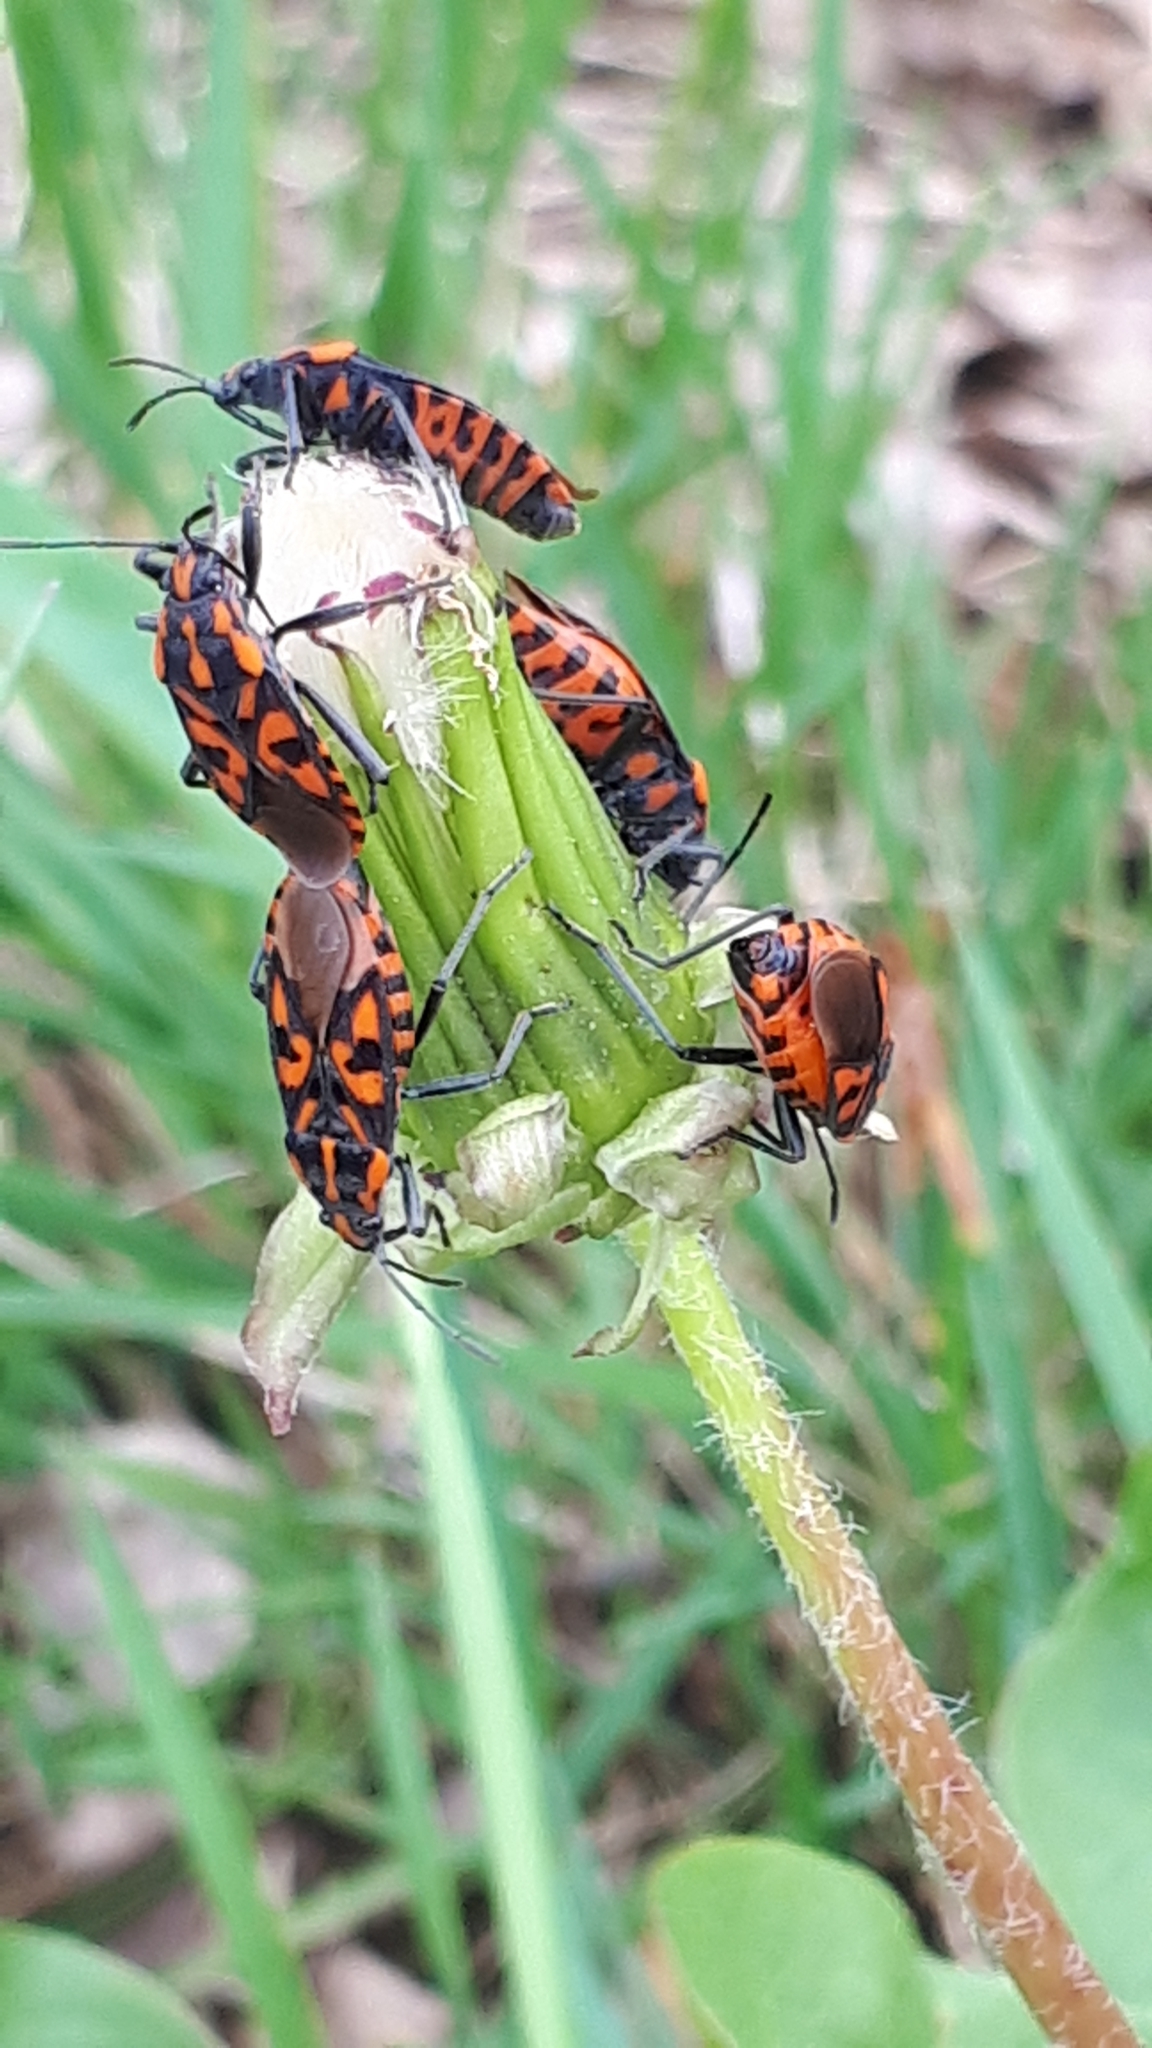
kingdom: Animalia
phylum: Arthropoda
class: Insecta
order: Hemiptera
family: Lygaeidae
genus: Spilostethus
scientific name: Spilostethus saxatilis
